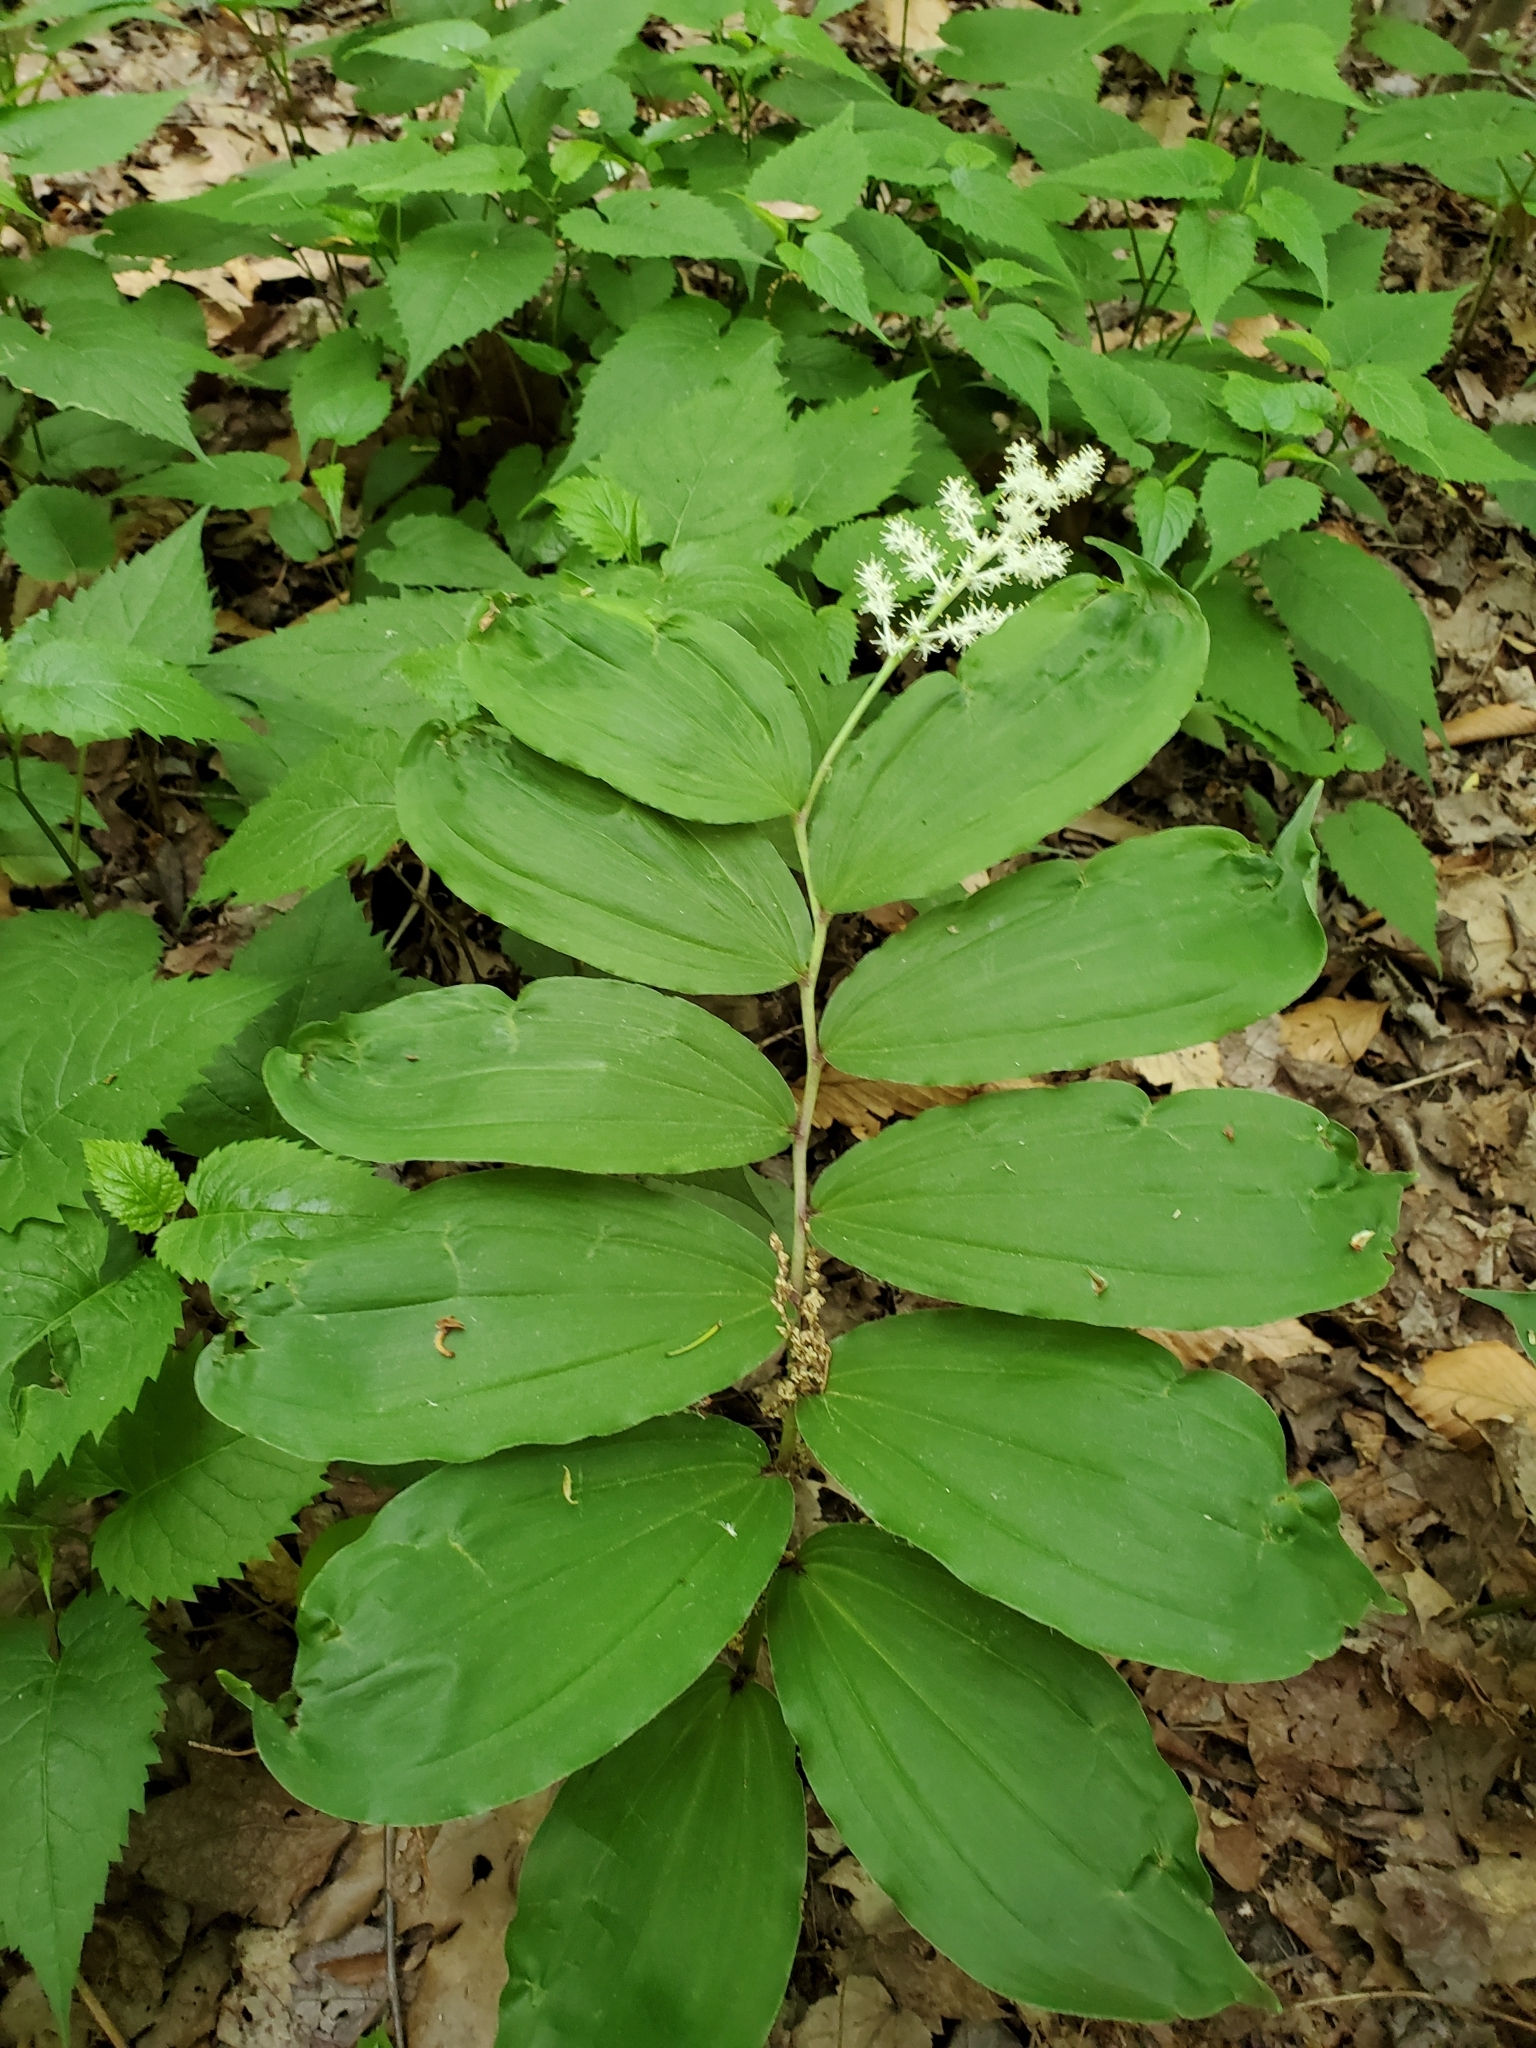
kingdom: Plantae
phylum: Tracheophyta
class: Liliopsida
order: Asparagales
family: Asparagaceae
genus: Maianthemum
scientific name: Maianthemum racemosum
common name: False spikenard
